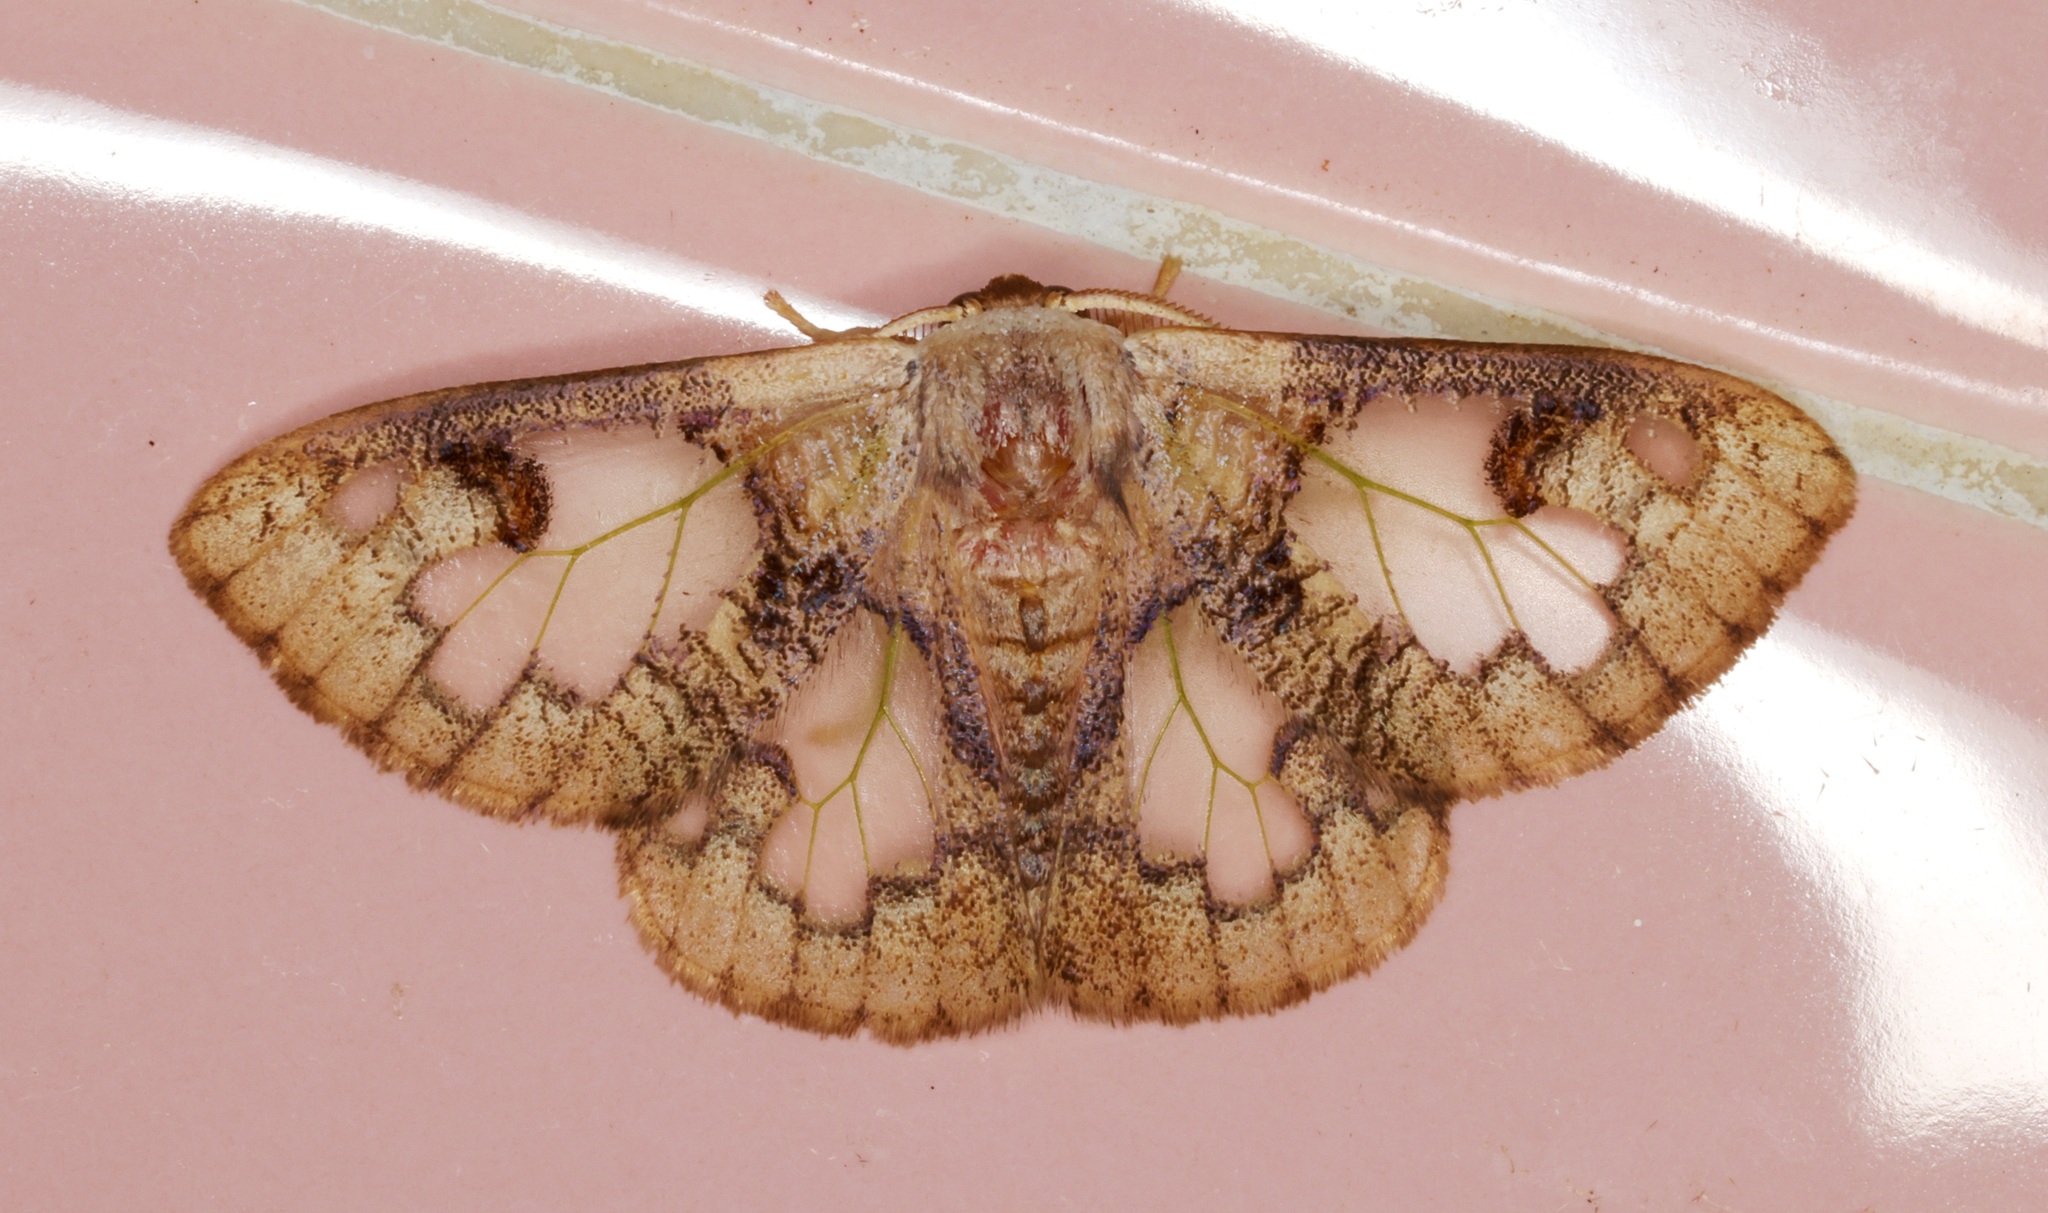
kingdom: Animalia
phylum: Arthropoda
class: Insecta
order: Lepidoptera
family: Erebidae
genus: Carriola
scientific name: Carriola seminsula
